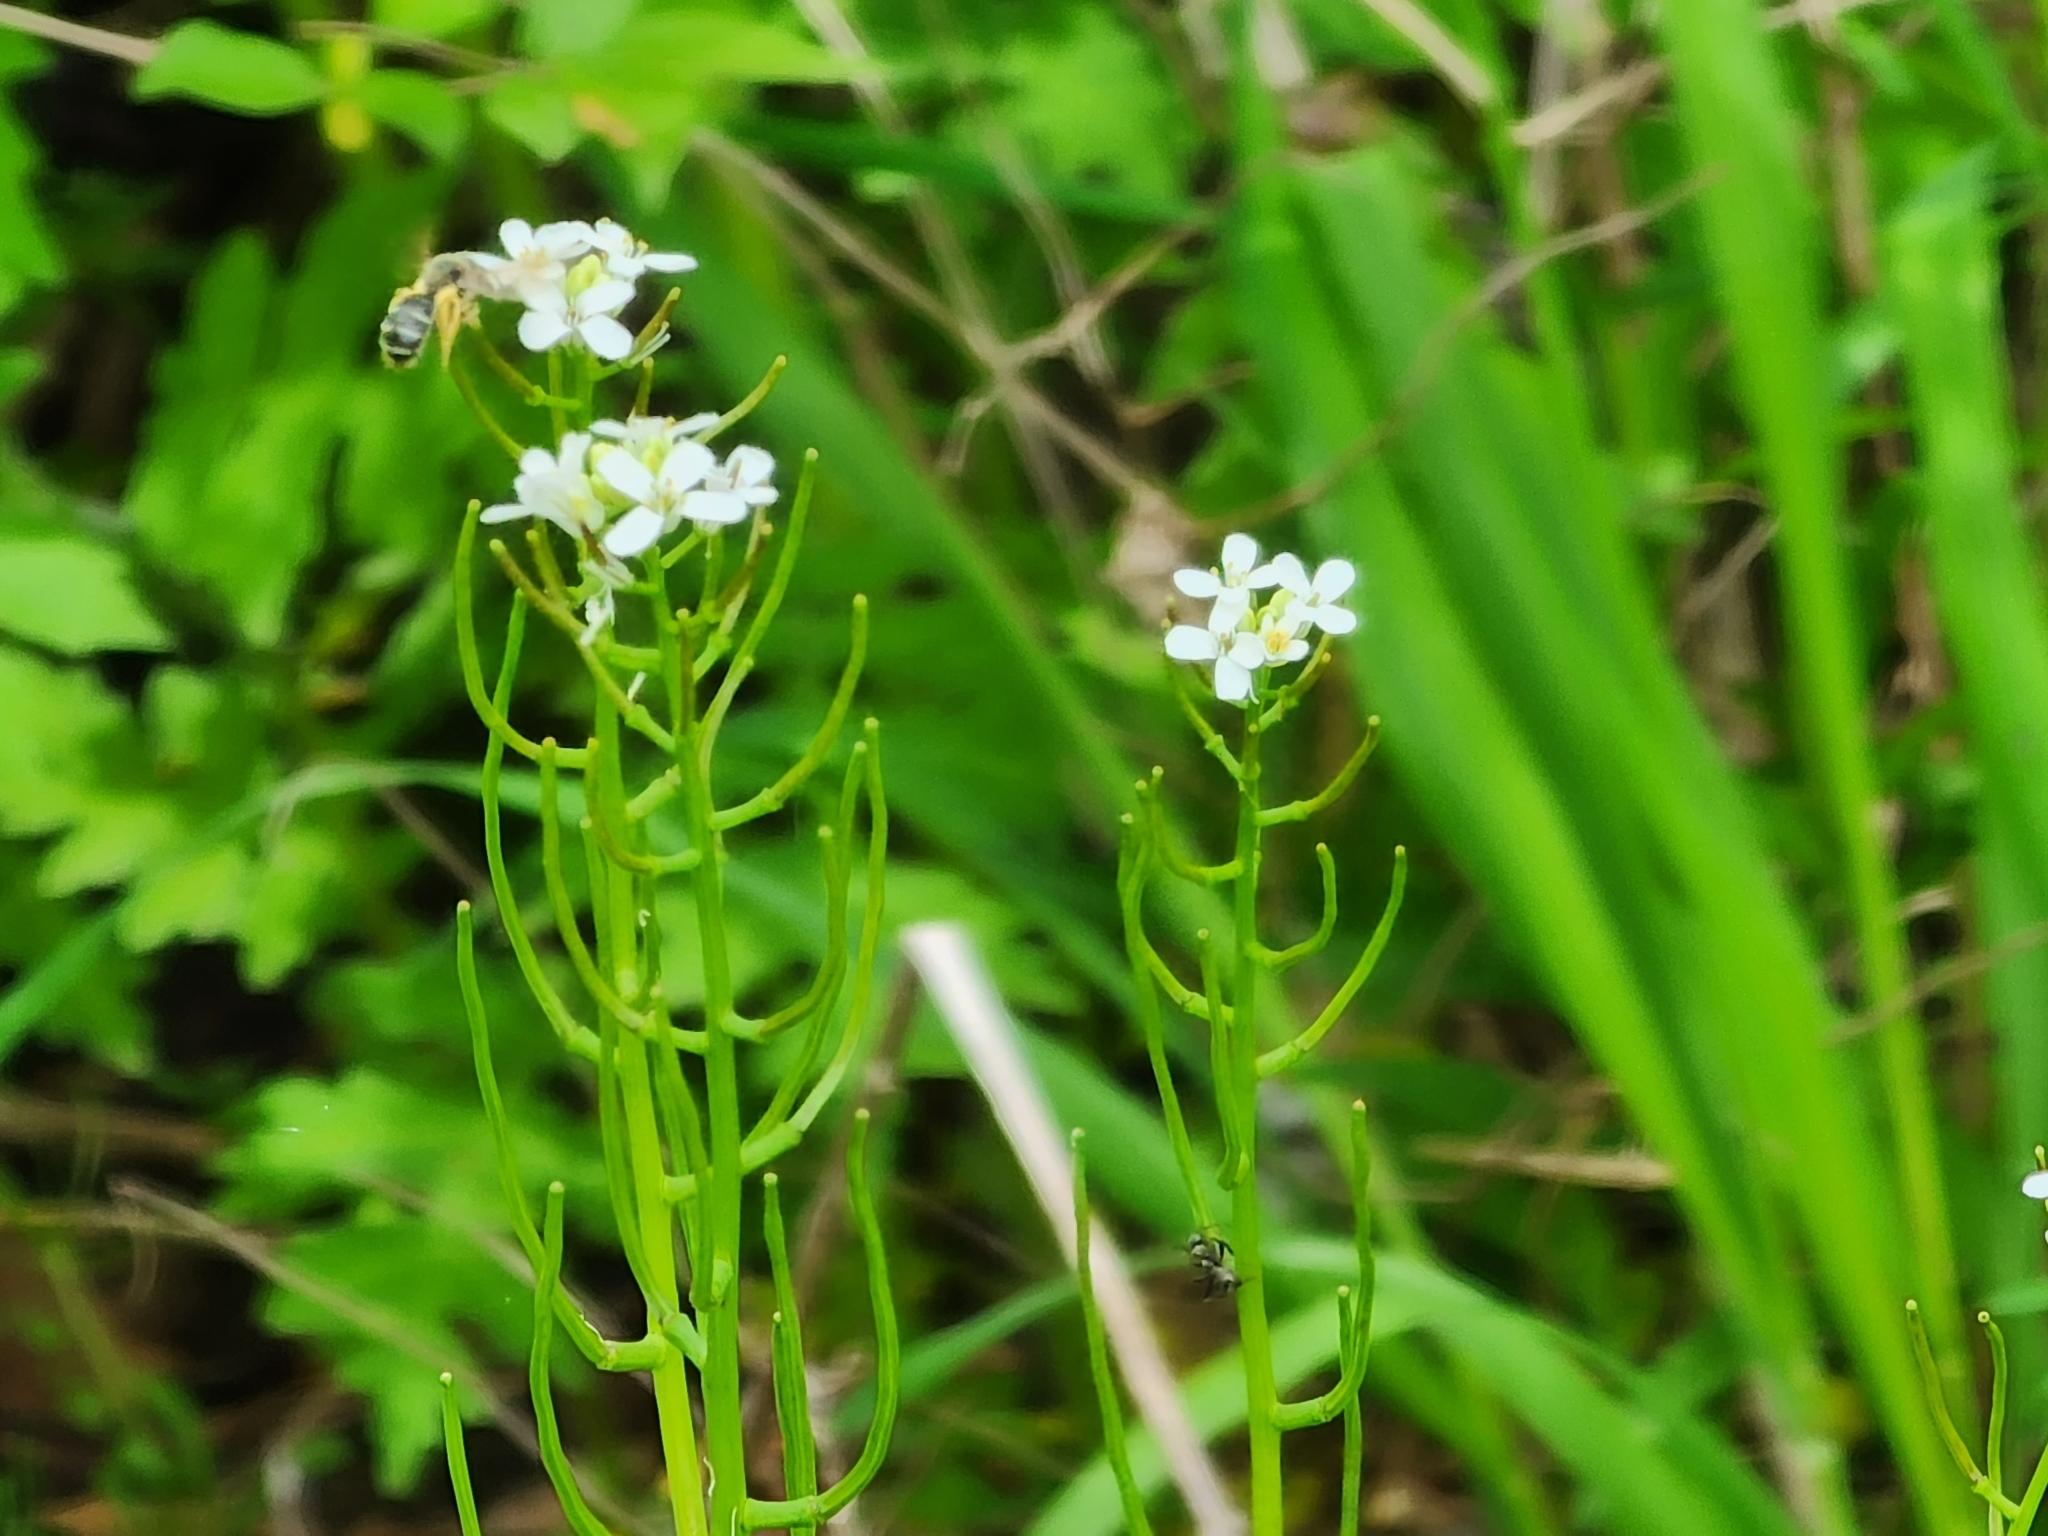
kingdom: Plantae
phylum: Tracheophyta
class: Magnoliopsida
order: Brassicales
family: Brassicaceae
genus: Alliaria
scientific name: Alliaria petiolata
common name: Garlic mustard
